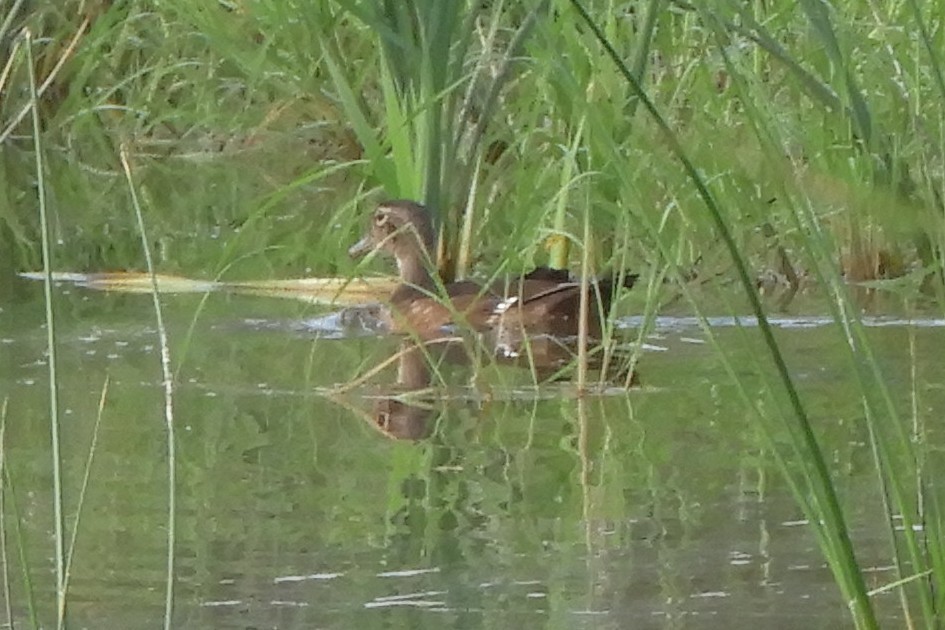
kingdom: Animalia
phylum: Chordata
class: Aves
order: Anseriformes
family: Anatidae
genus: Aix
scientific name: Aix sponsa
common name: Wood duck
